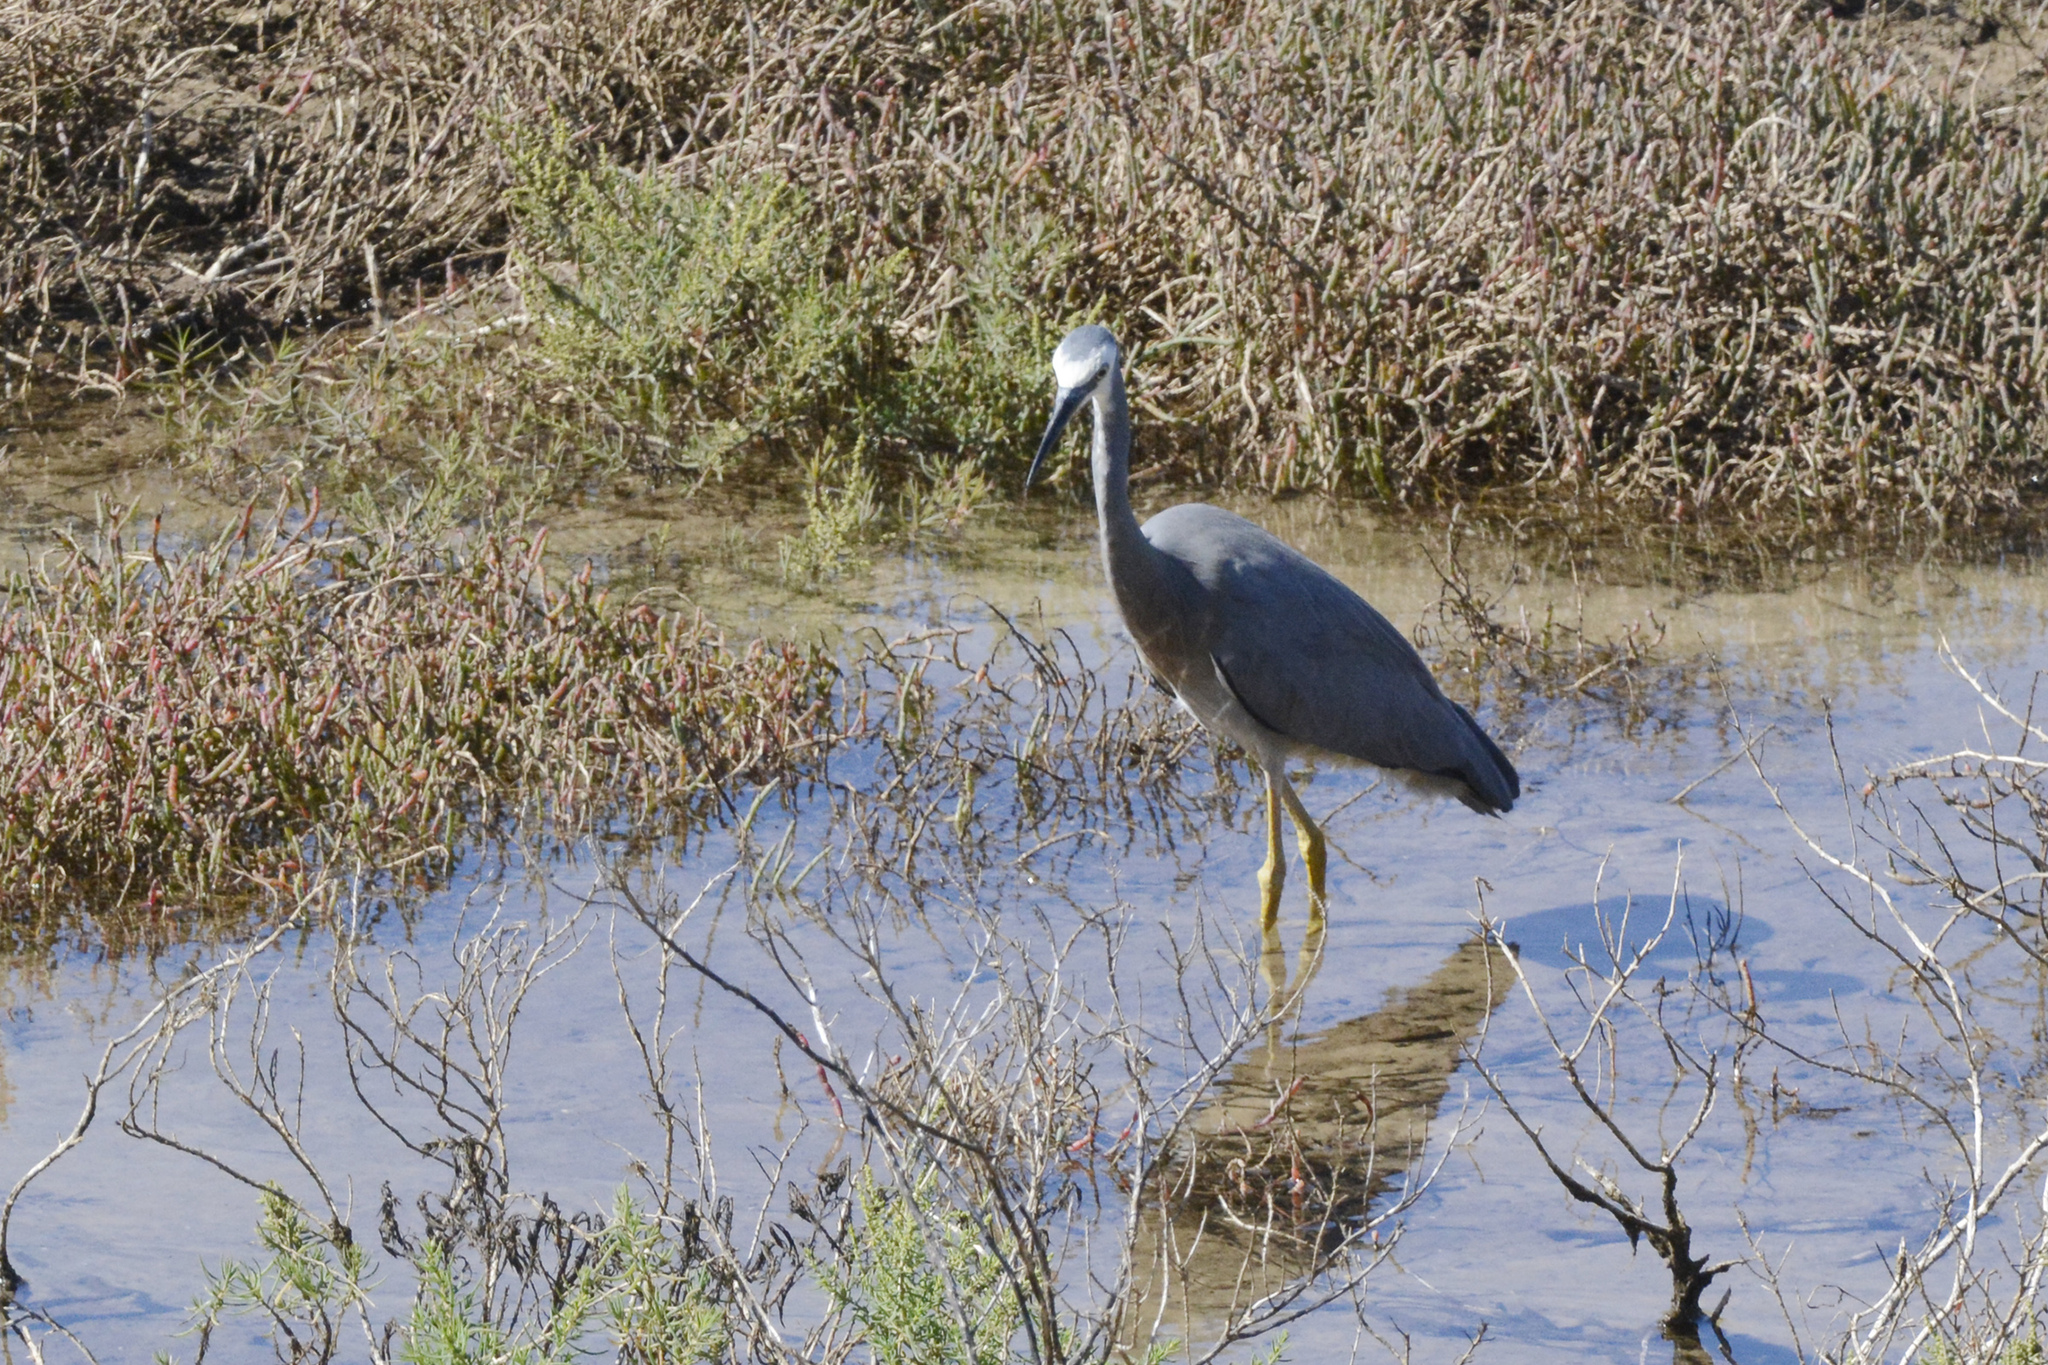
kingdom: Animalia
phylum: Chordata
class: Aves
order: Pelecaniformes
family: Ardeidae
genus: Egretta
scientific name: Egretta novaehollandiae
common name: White-faced heron
